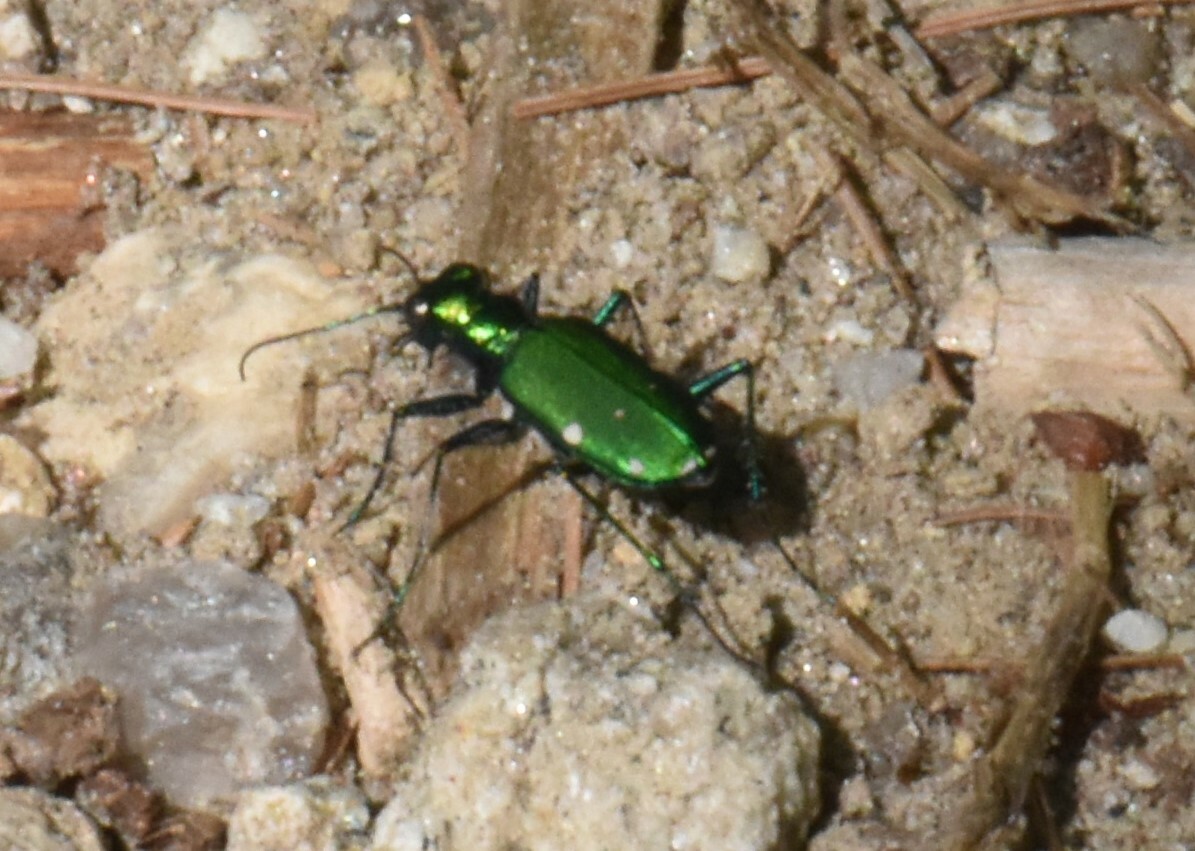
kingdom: Animalia
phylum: Arthropoda
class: Insecta
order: Coleoptera
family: Carabidae
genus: Cicindela
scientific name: Cicindela sexguttata
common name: Six-spotted tiger beetle
